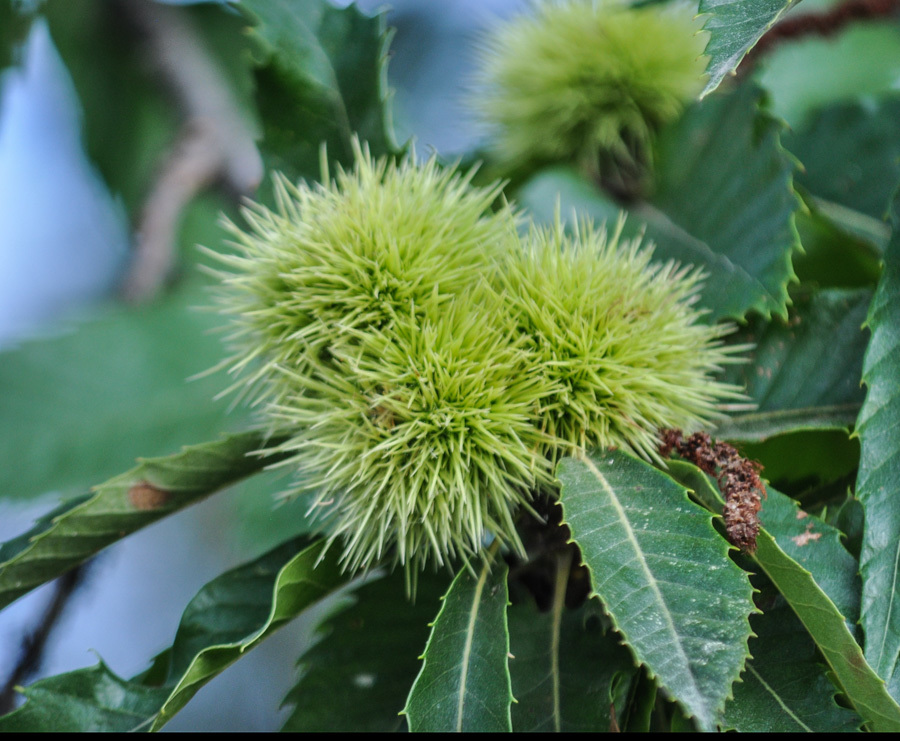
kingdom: Plantae
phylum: Tracheophyta
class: Magnoliopsida
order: Fagales
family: Fagaceae
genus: Castanea
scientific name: Castanea sativa
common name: Sweet chestnut
